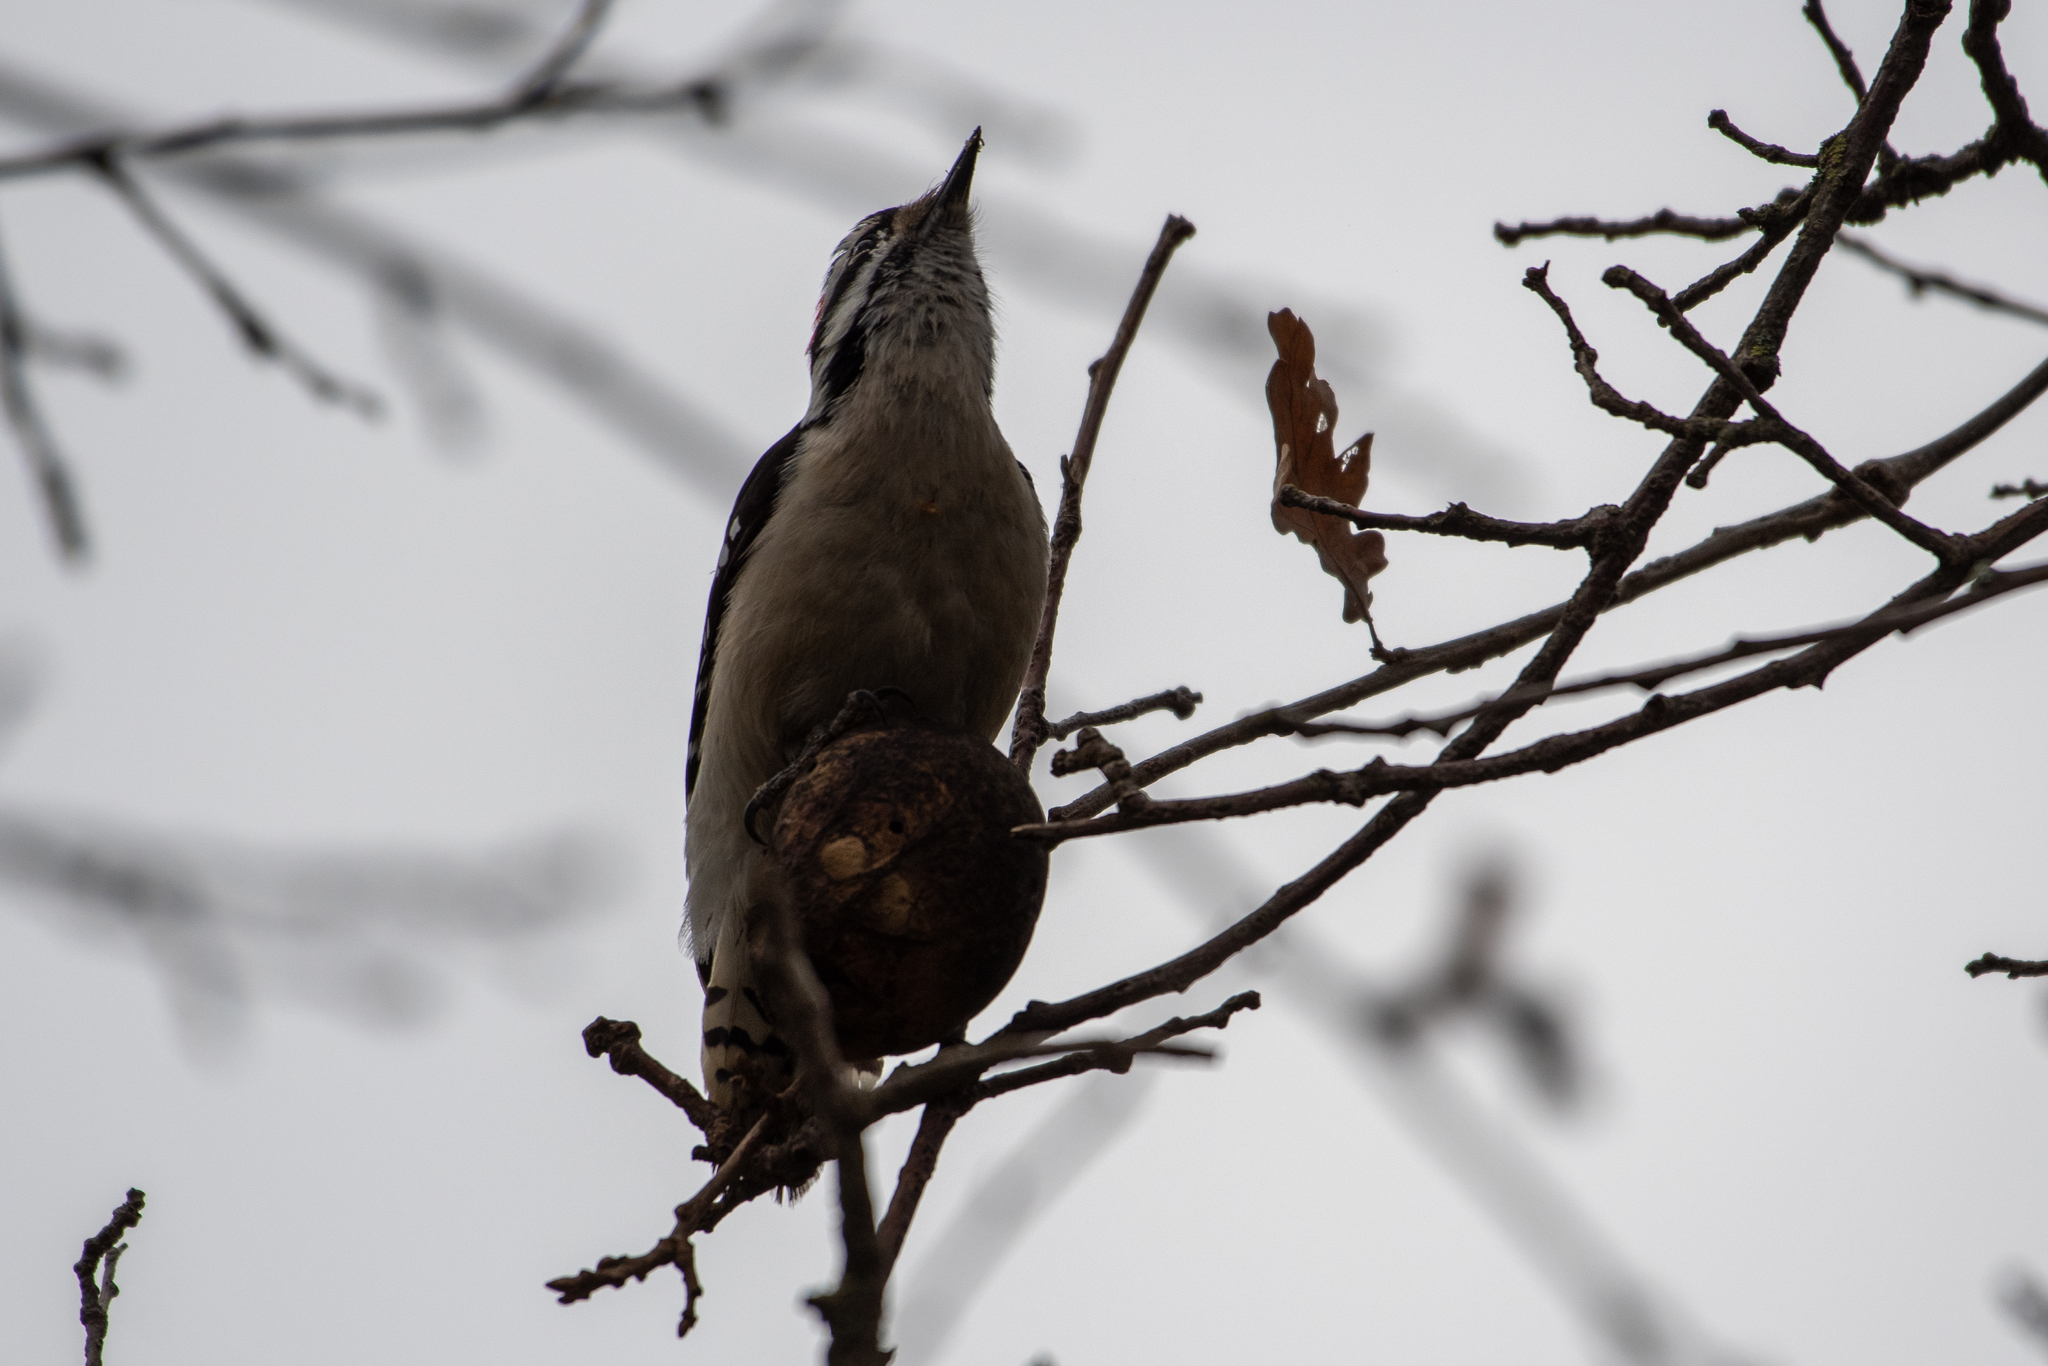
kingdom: Animalia
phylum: Chordata
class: Aves
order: Piciformes
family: Picidae
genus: Dryobates
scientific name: Dryobates pubescens
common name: Downy woodpecker
